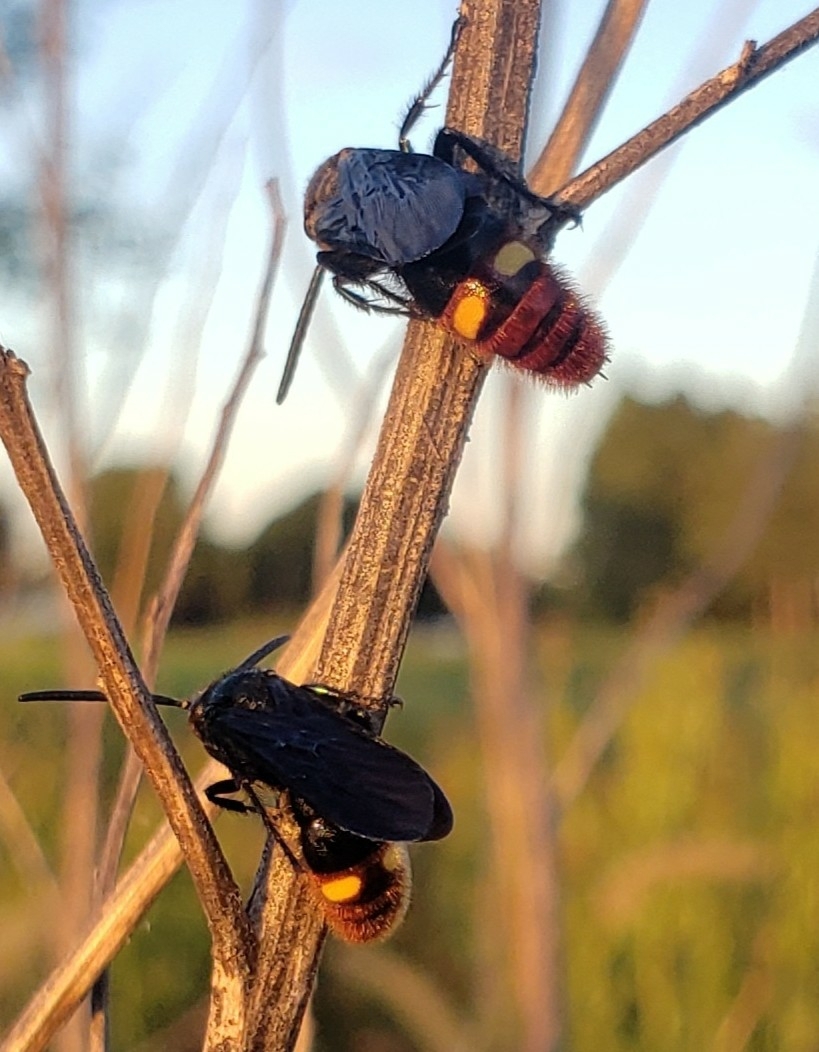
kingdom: Animalia
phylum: Arthropoda
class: Insecta
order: Hymenoptera
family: Scoliidae
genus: Scolia
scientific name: Scolia dubia
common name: Blue-winged scoliid wasp
